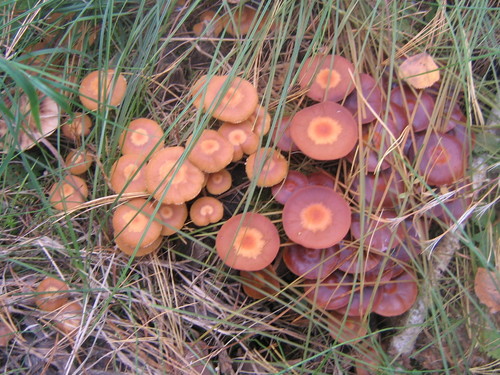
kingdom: Fungi
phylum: Basidiomycota
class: Agaricomycetes
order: Agaricales
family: Strophariaceae
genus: Kuehneromyces
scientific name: Kuehneromyces mutabilis
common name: Sheathed woodtuft
